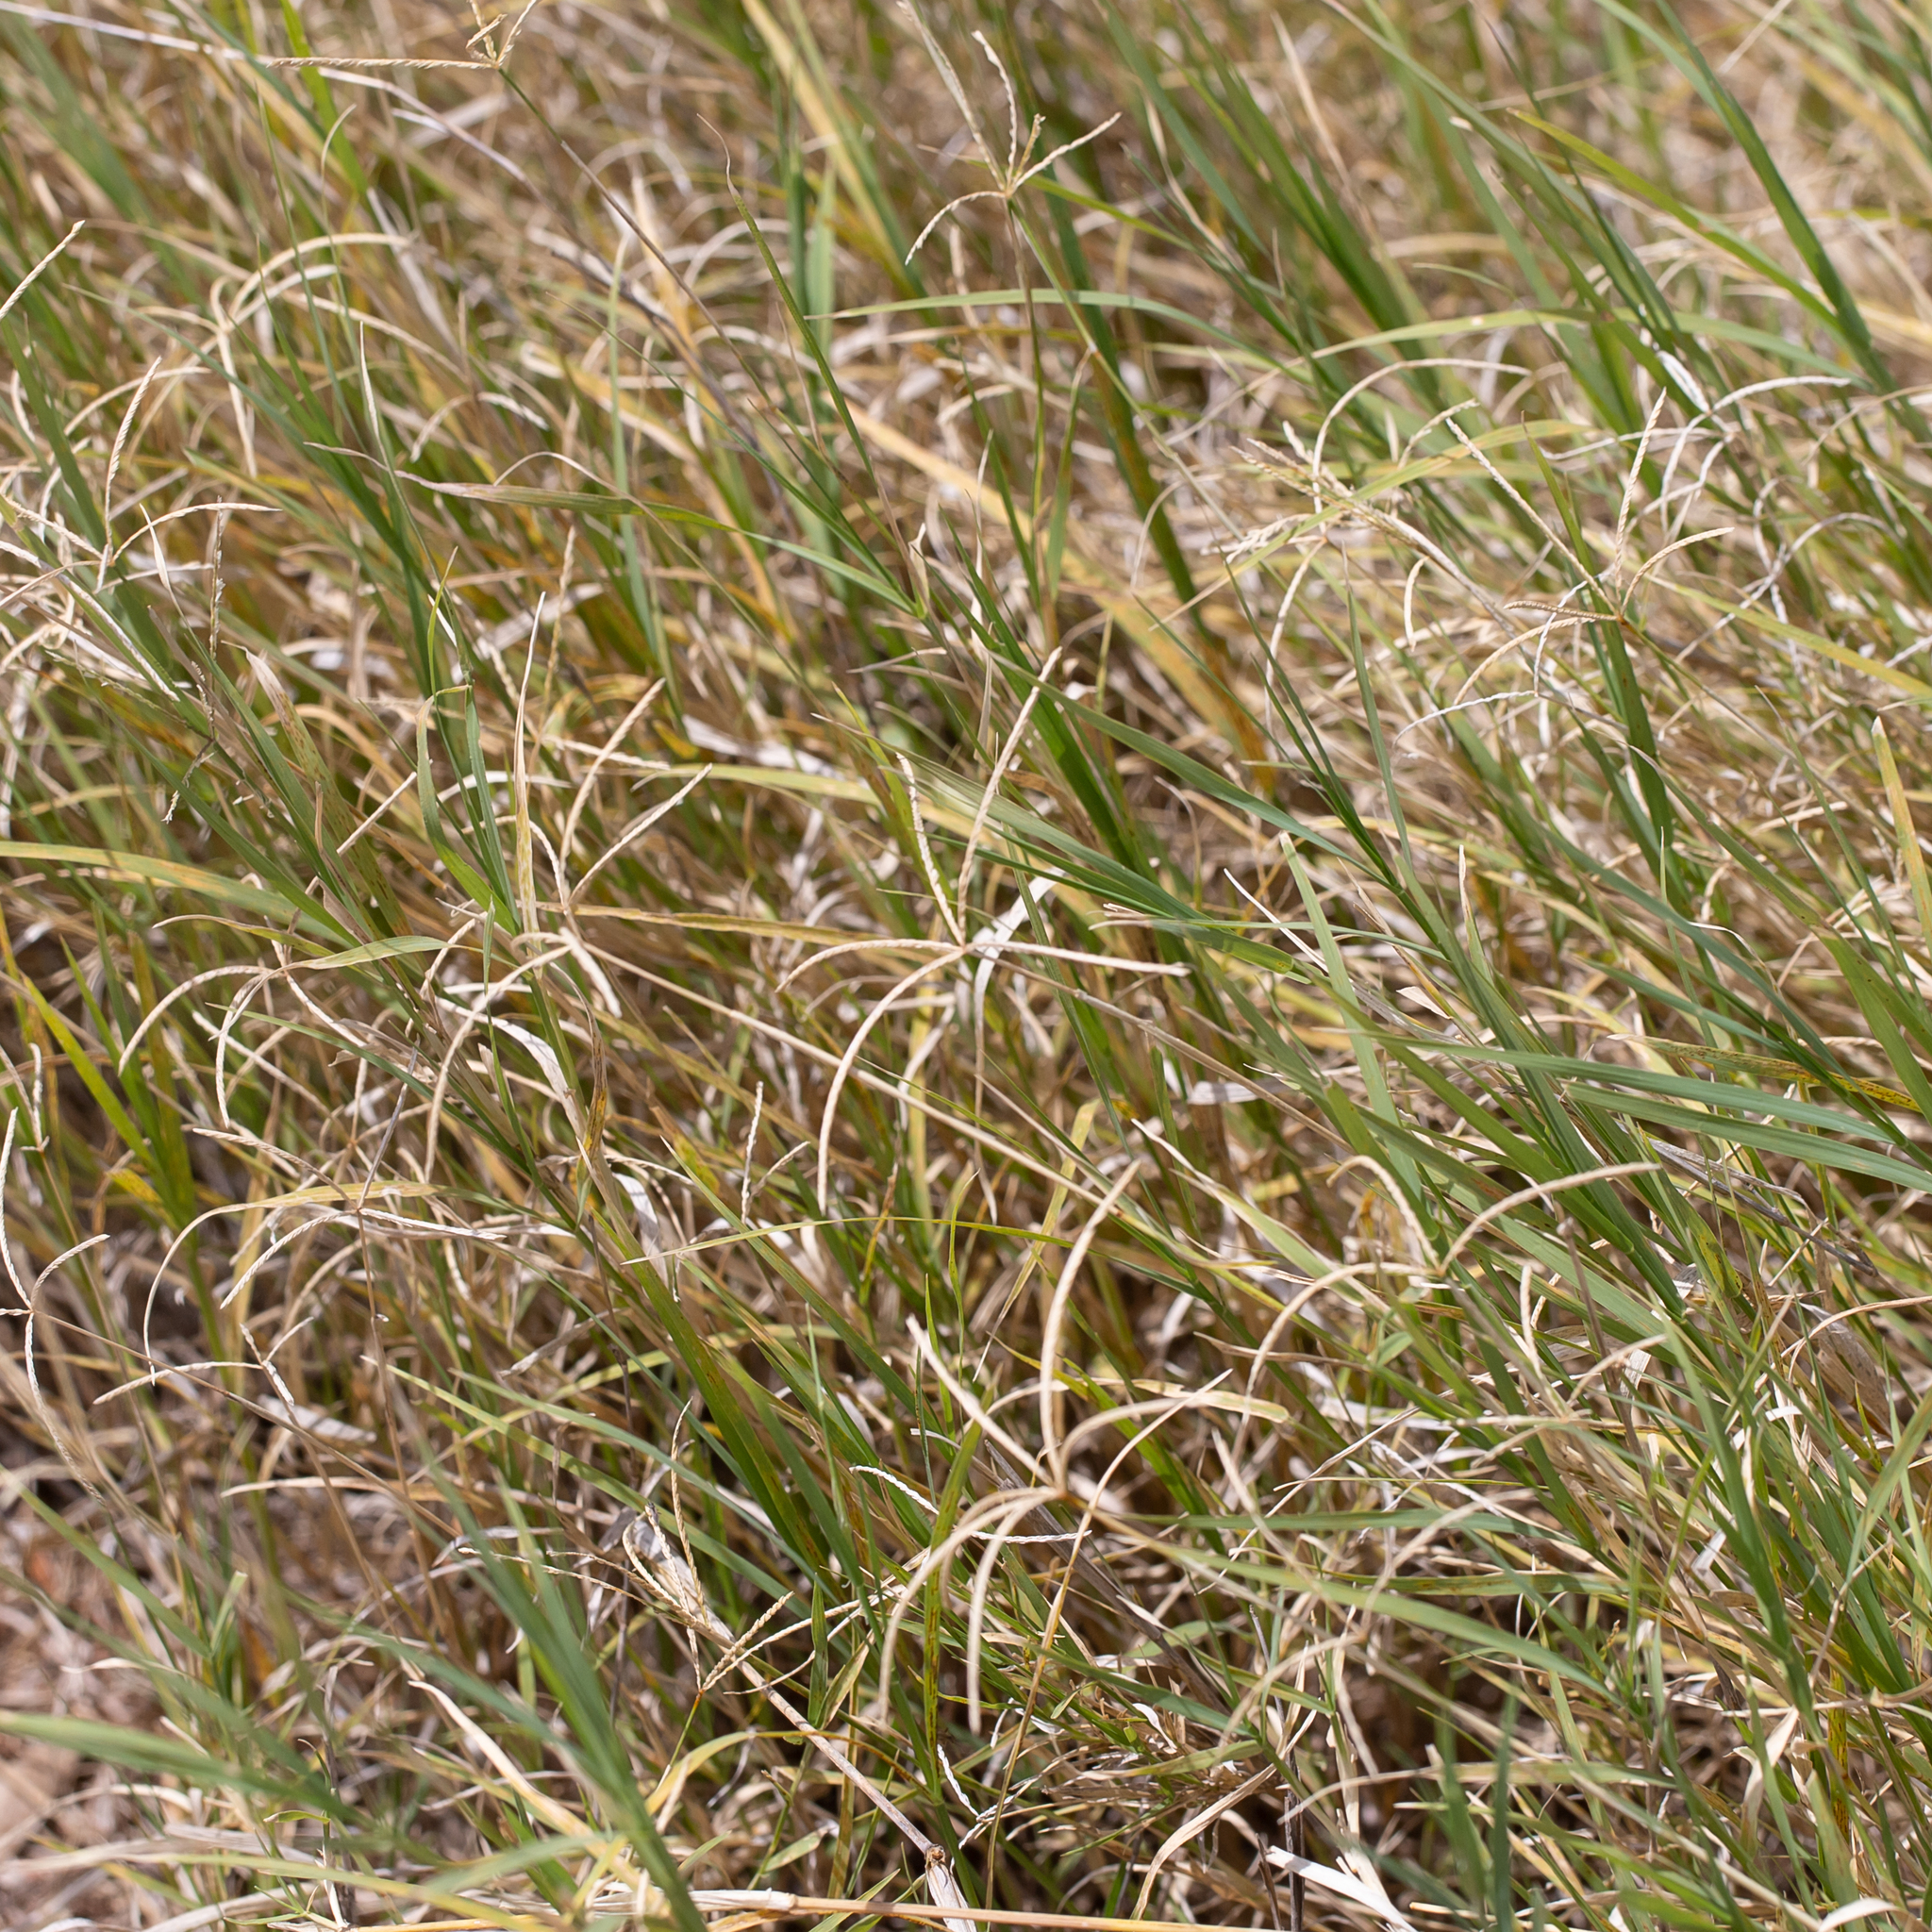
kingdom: Plantae
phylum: Tracheophyta
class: Liliopsida
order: Poales
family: Poaceae
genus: Cynodon
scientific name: Cynodon dactylon
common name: Bermuda grass
